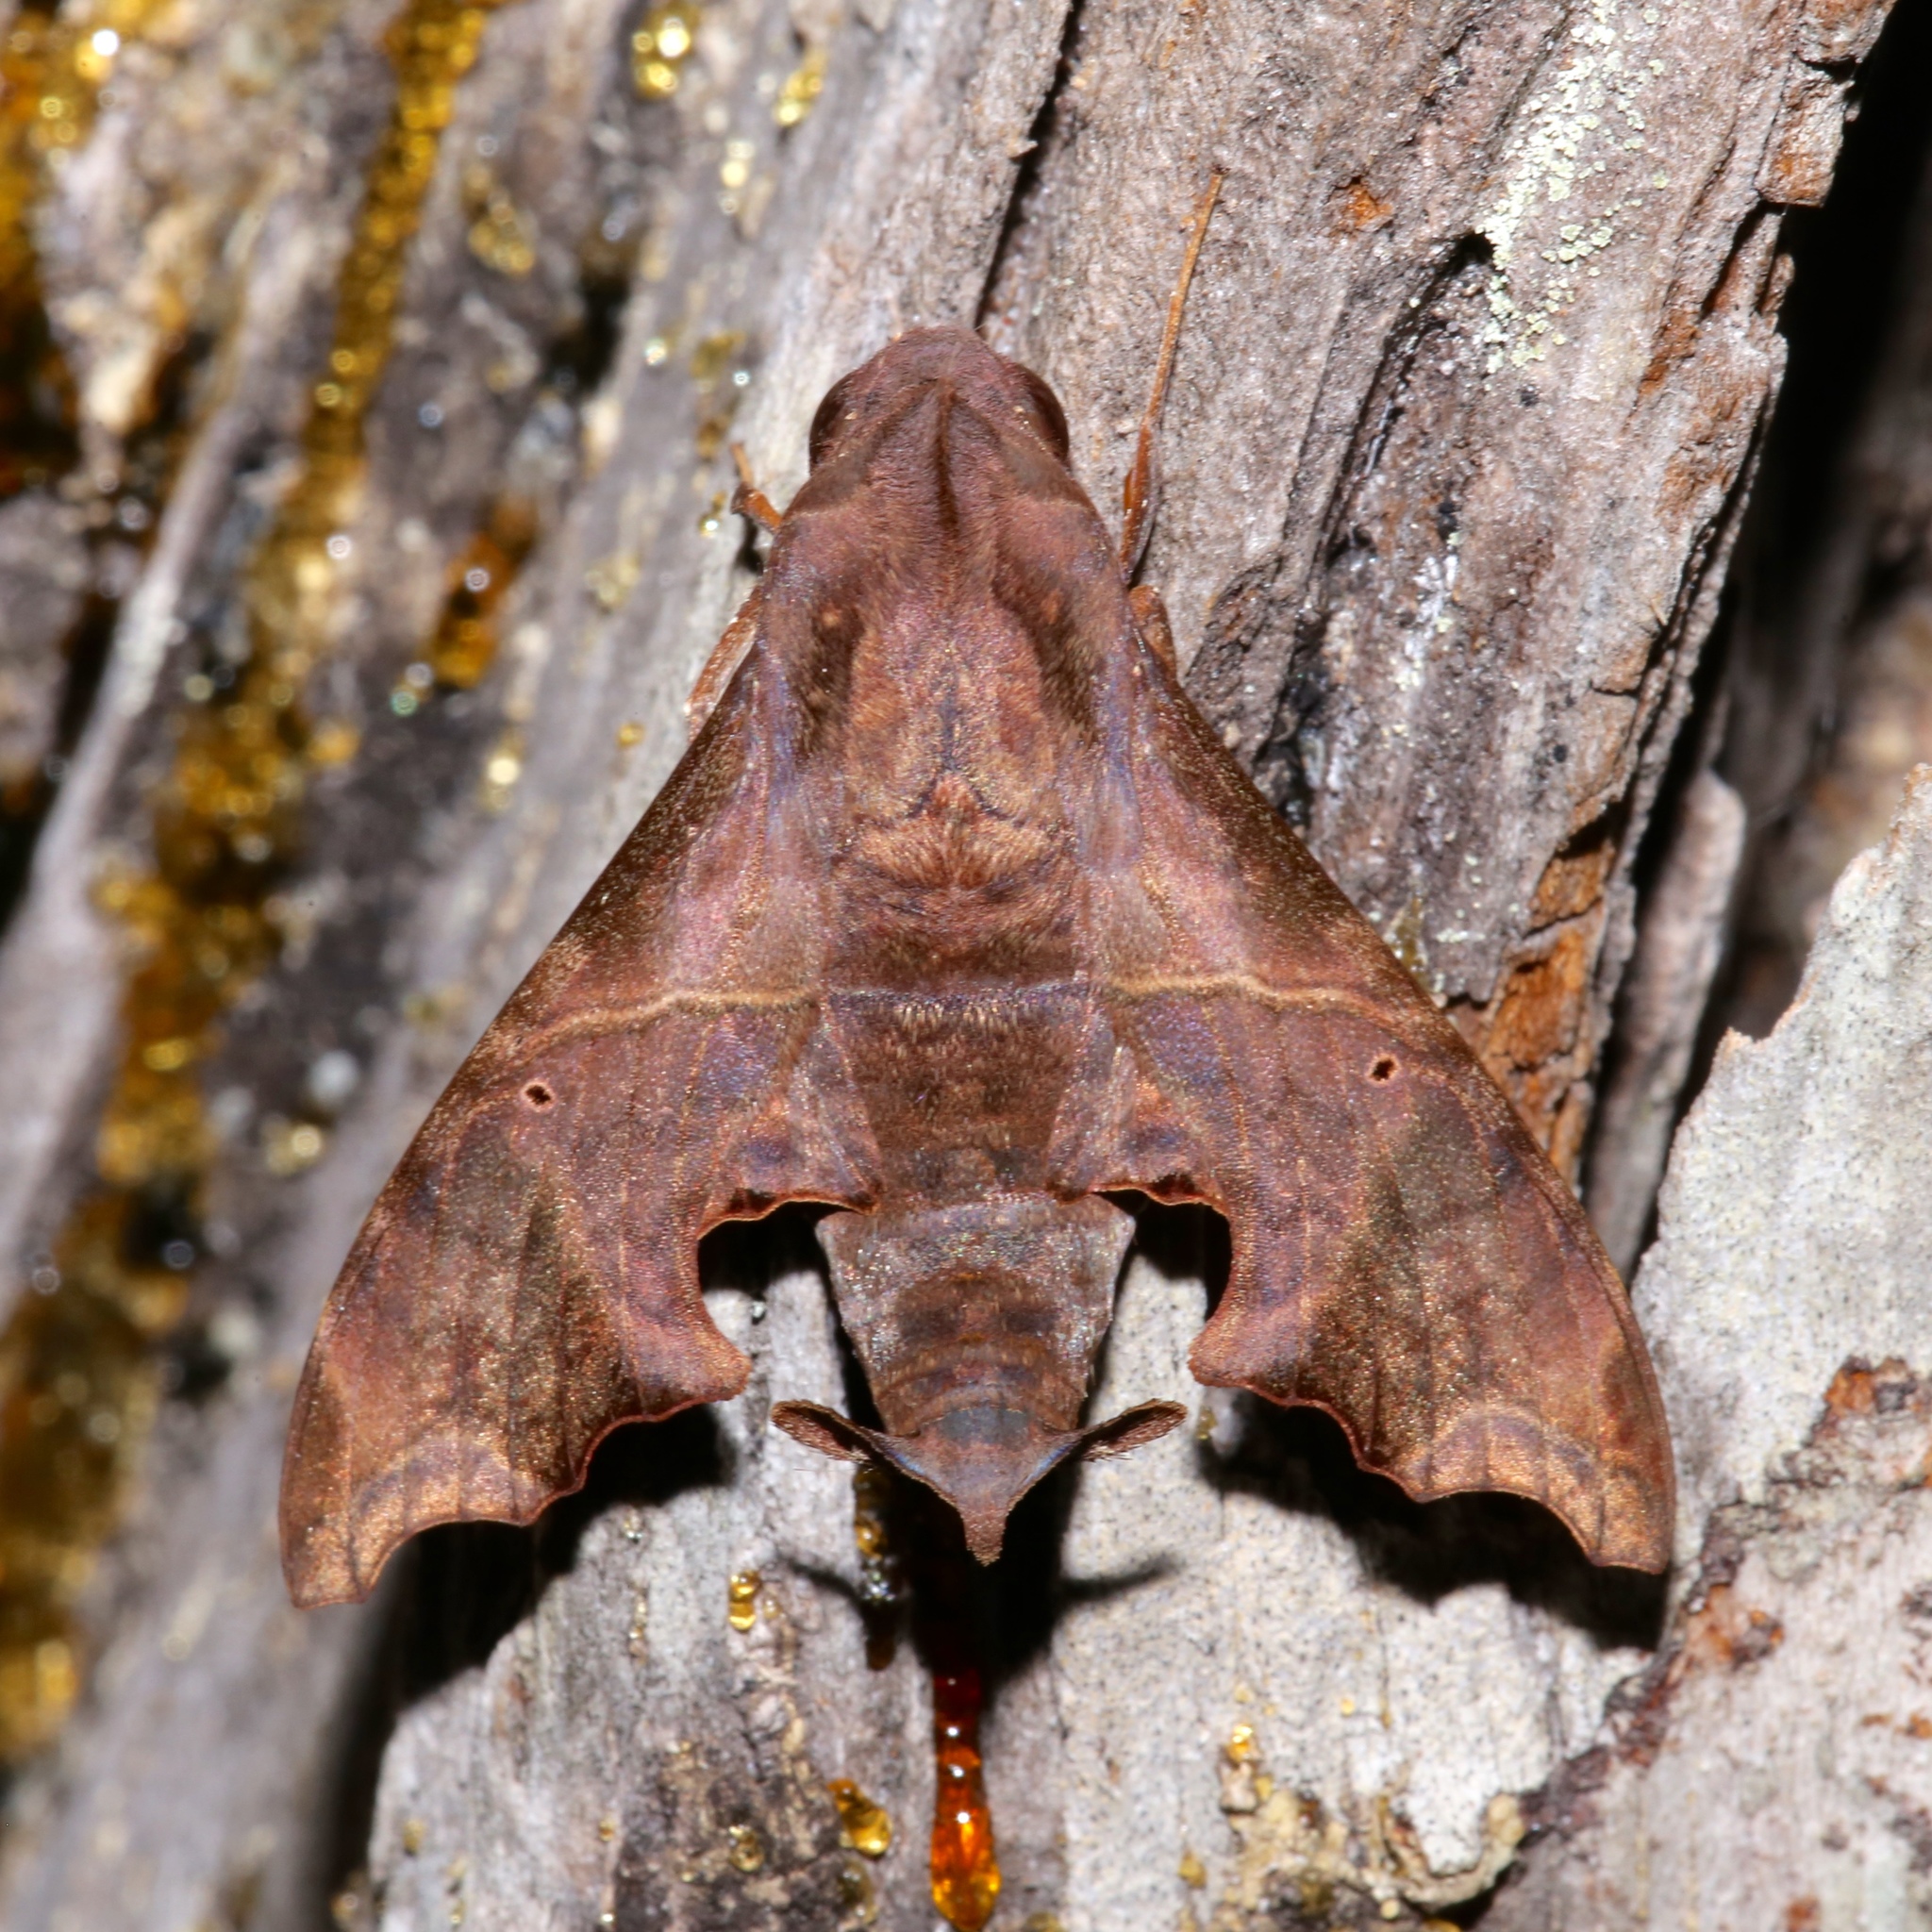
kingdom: Animalia
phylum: Arthropoda
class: Insecta
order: Lepidoptera
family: Sphingidae
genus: Enyo
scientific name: Enyo lugubris
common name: Mournful sphinx
